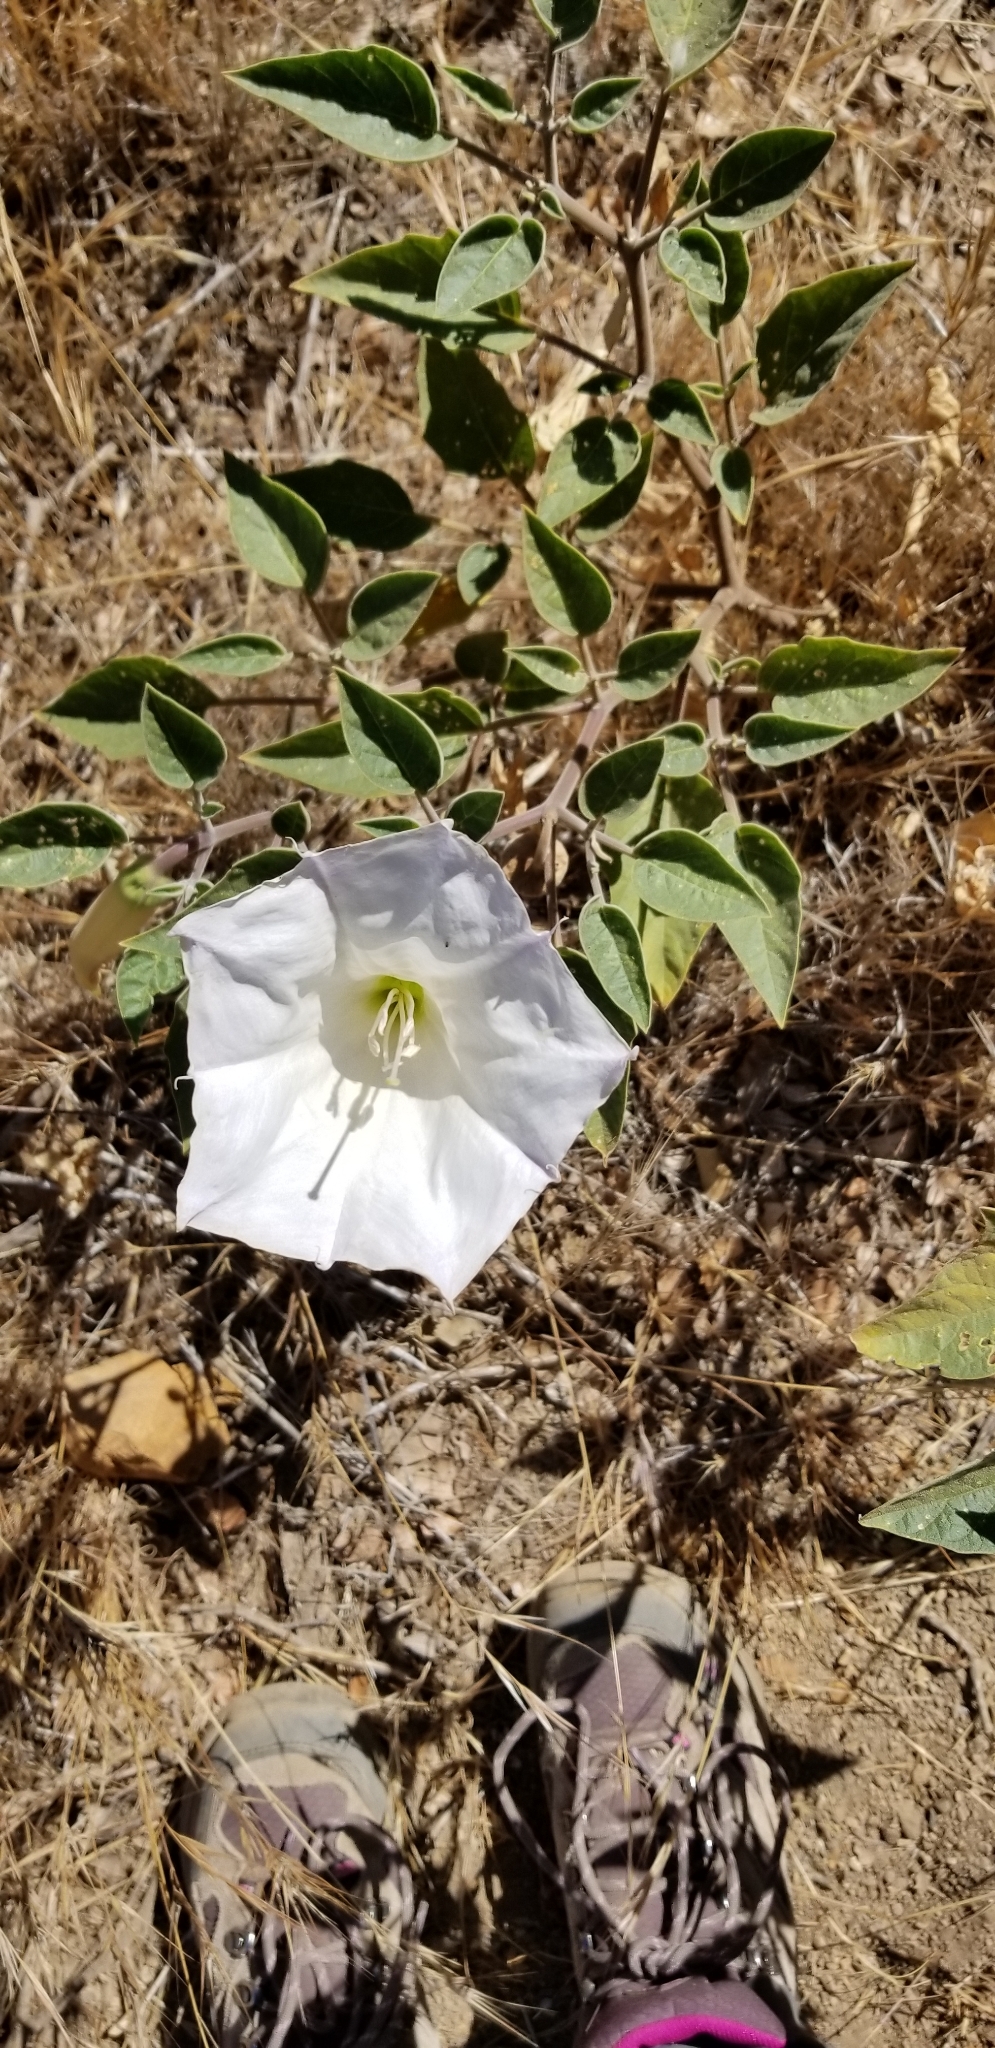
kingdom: Plantae
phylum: Tracheophyta
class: Magnoliopsida
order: Solanales
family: Solanaceae
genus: Datura
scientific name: Datura wrightii
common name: Sacred thorn-apple
